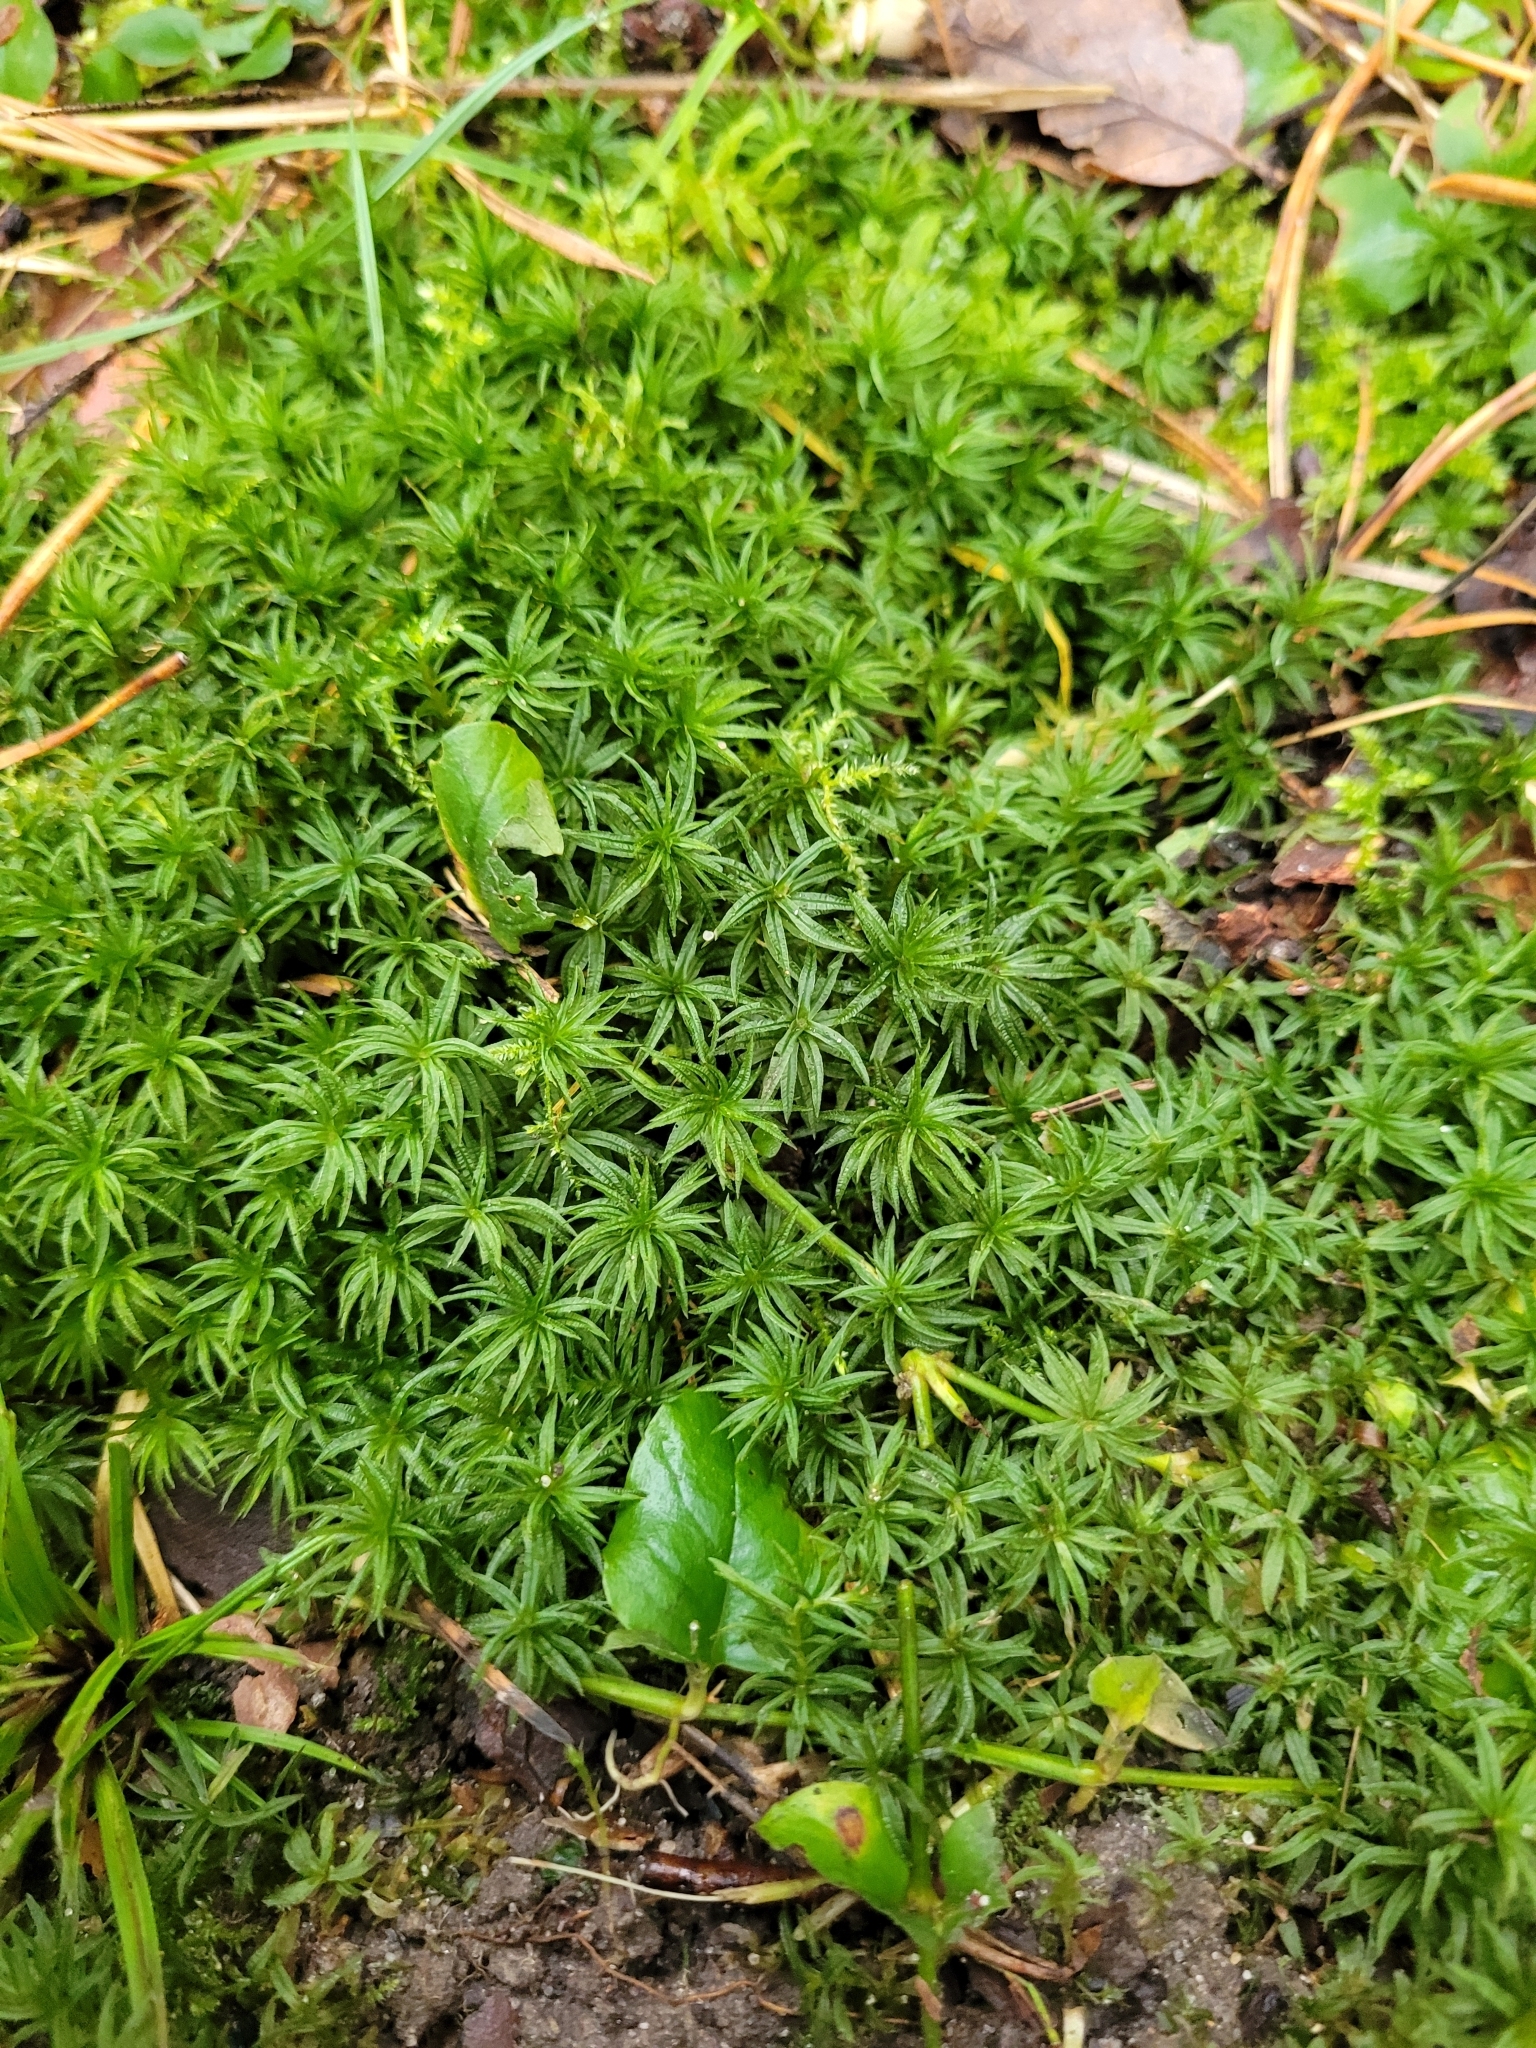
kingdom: Plantae
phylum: Bryophyta
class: Polytrichopsida
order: Polytrichales
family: Polytrichaceae
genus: Atrichum
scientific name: Atrichum undulatum
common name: Common smoothcap
